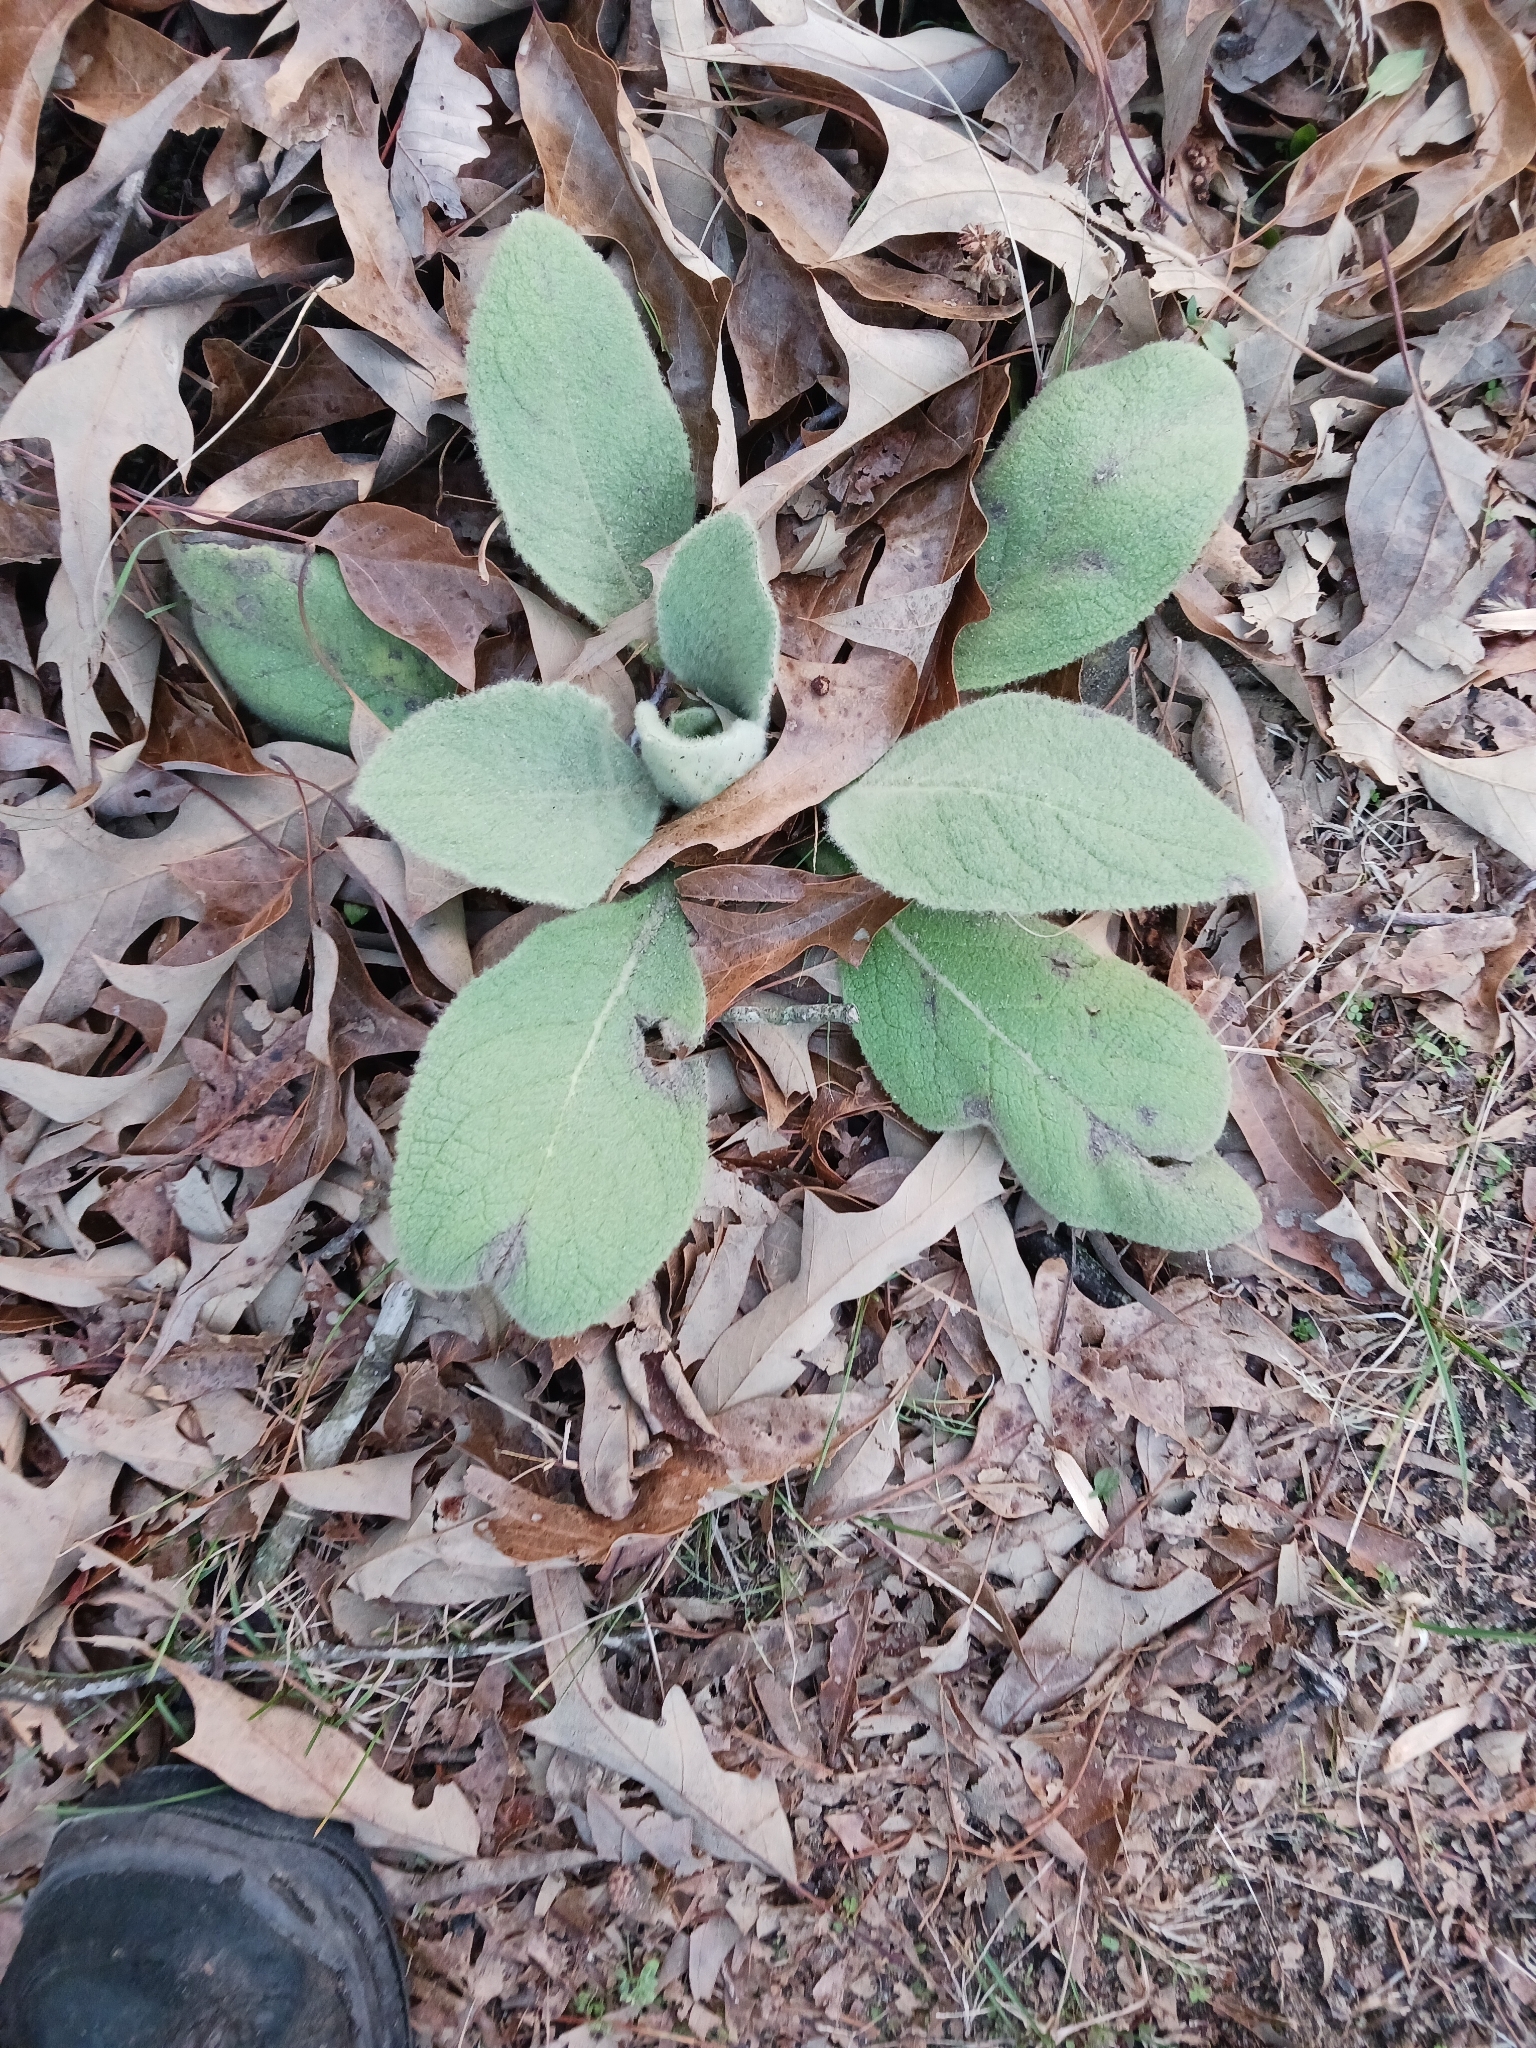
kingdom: Plantae
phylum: Tracheophyta
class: Magnoliopsida
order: Lamiales
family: Scrophulariaceae
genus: Verbascum
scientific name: Verbascum thapsus
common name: Common mullein
